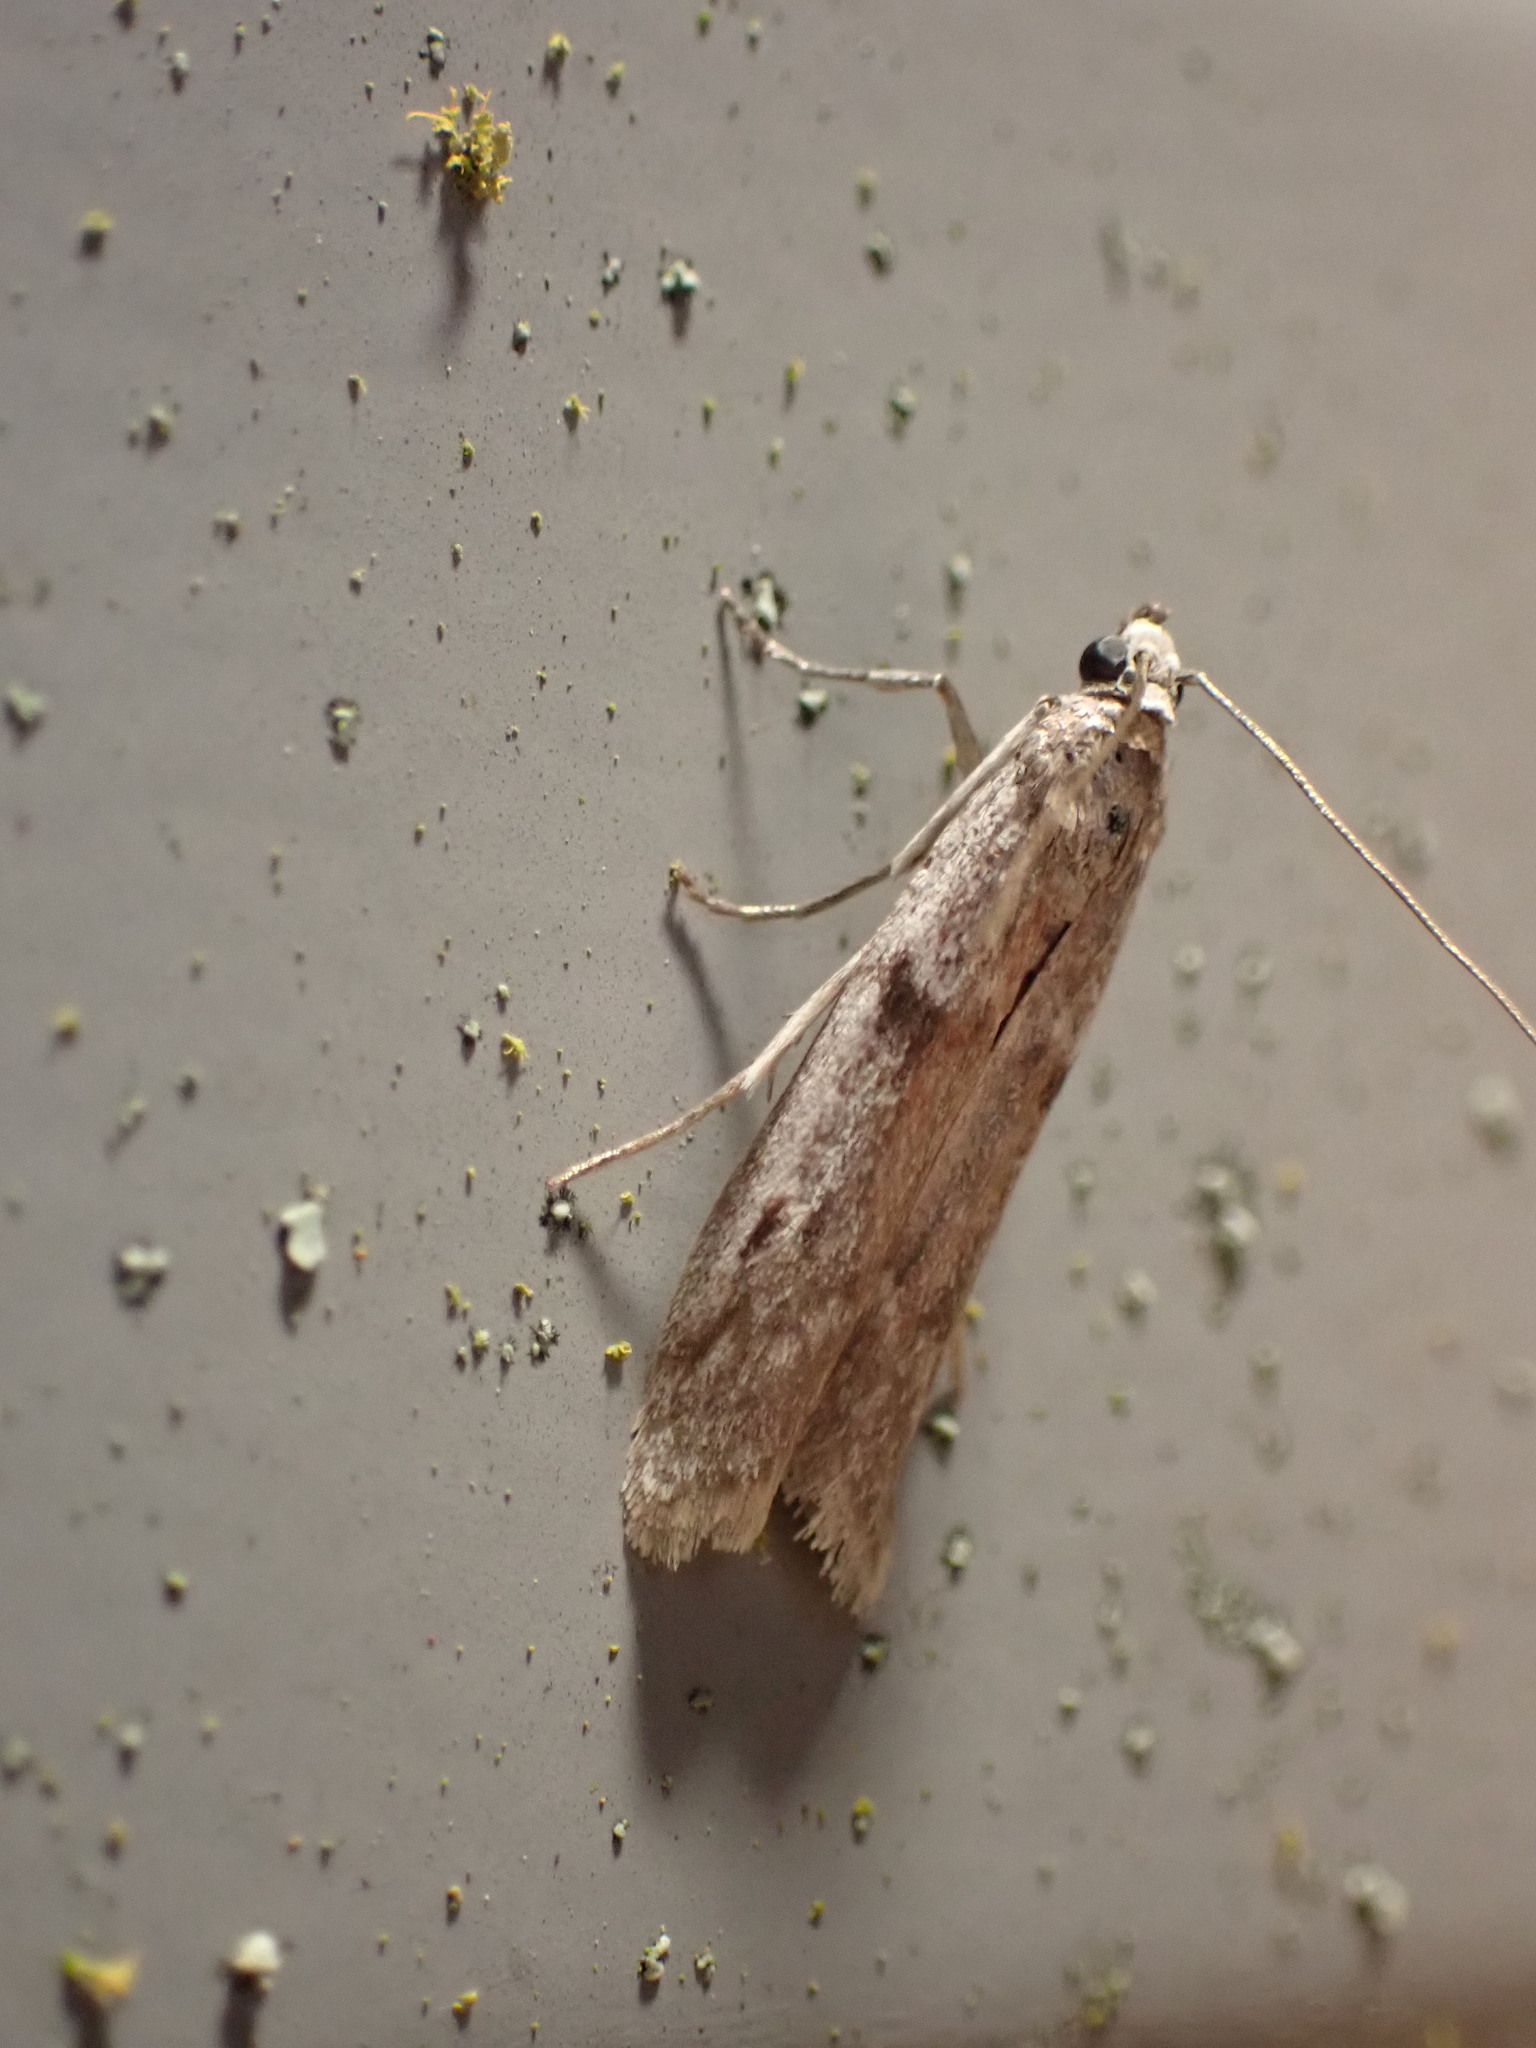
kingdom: Animalia
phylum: Arthropoda
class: Insecta
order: Lepidoptera
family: Pyralidae
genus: Patagoniodes
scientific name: Patagoniodes farinaria
